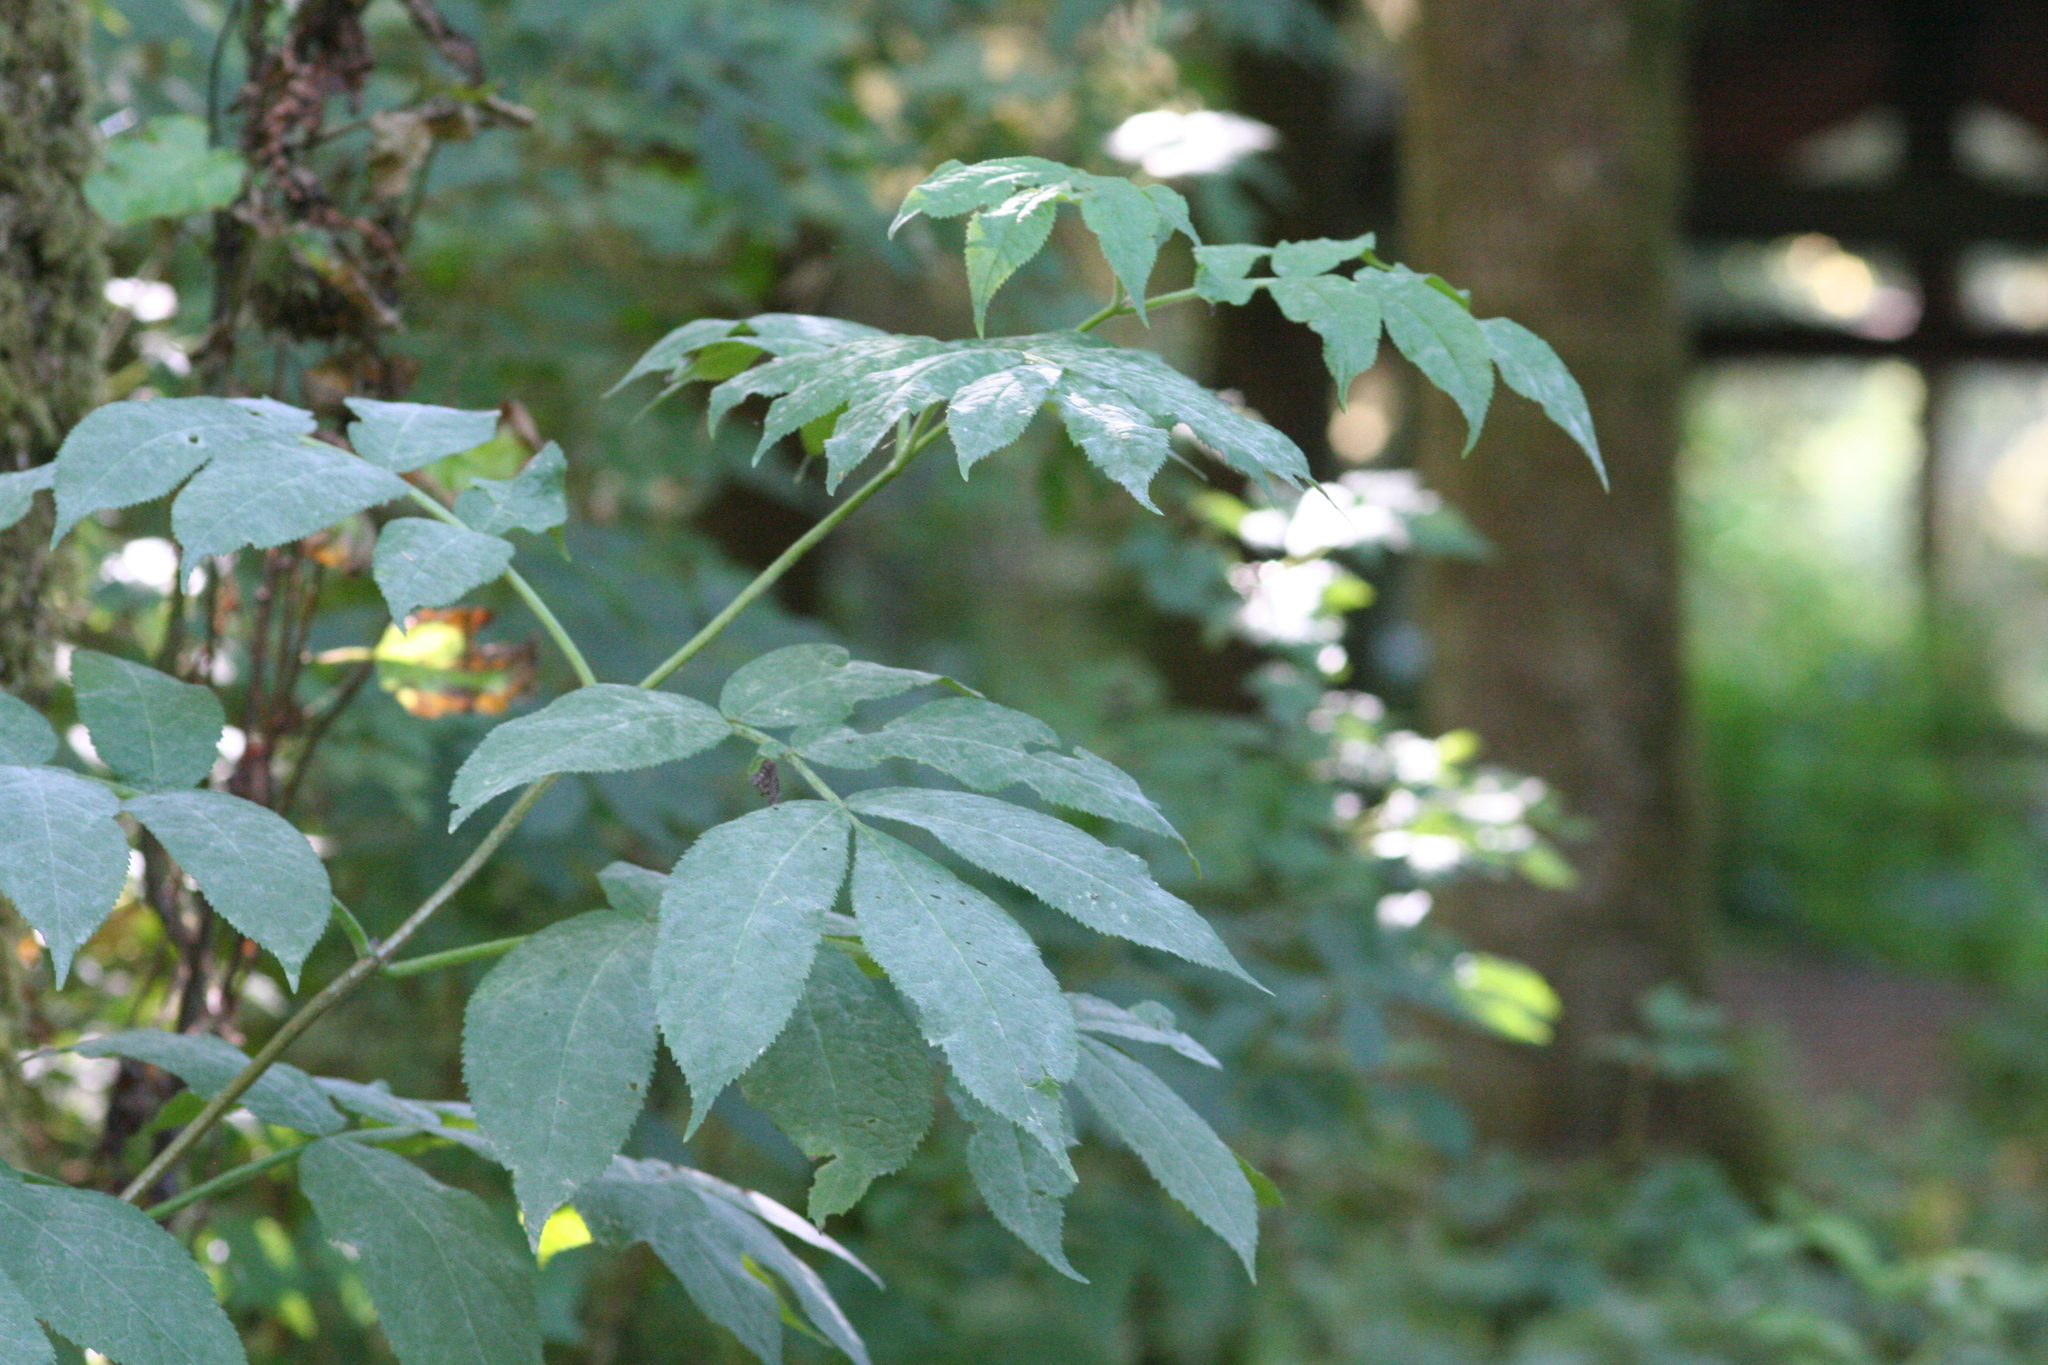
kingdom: Plantae
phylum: Tracheophyta
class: Magnoliopsida
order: Dipsacales
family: Viburnaceae
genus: Sambucus
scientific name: Sambucus racemosa
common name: Red-berried elder
